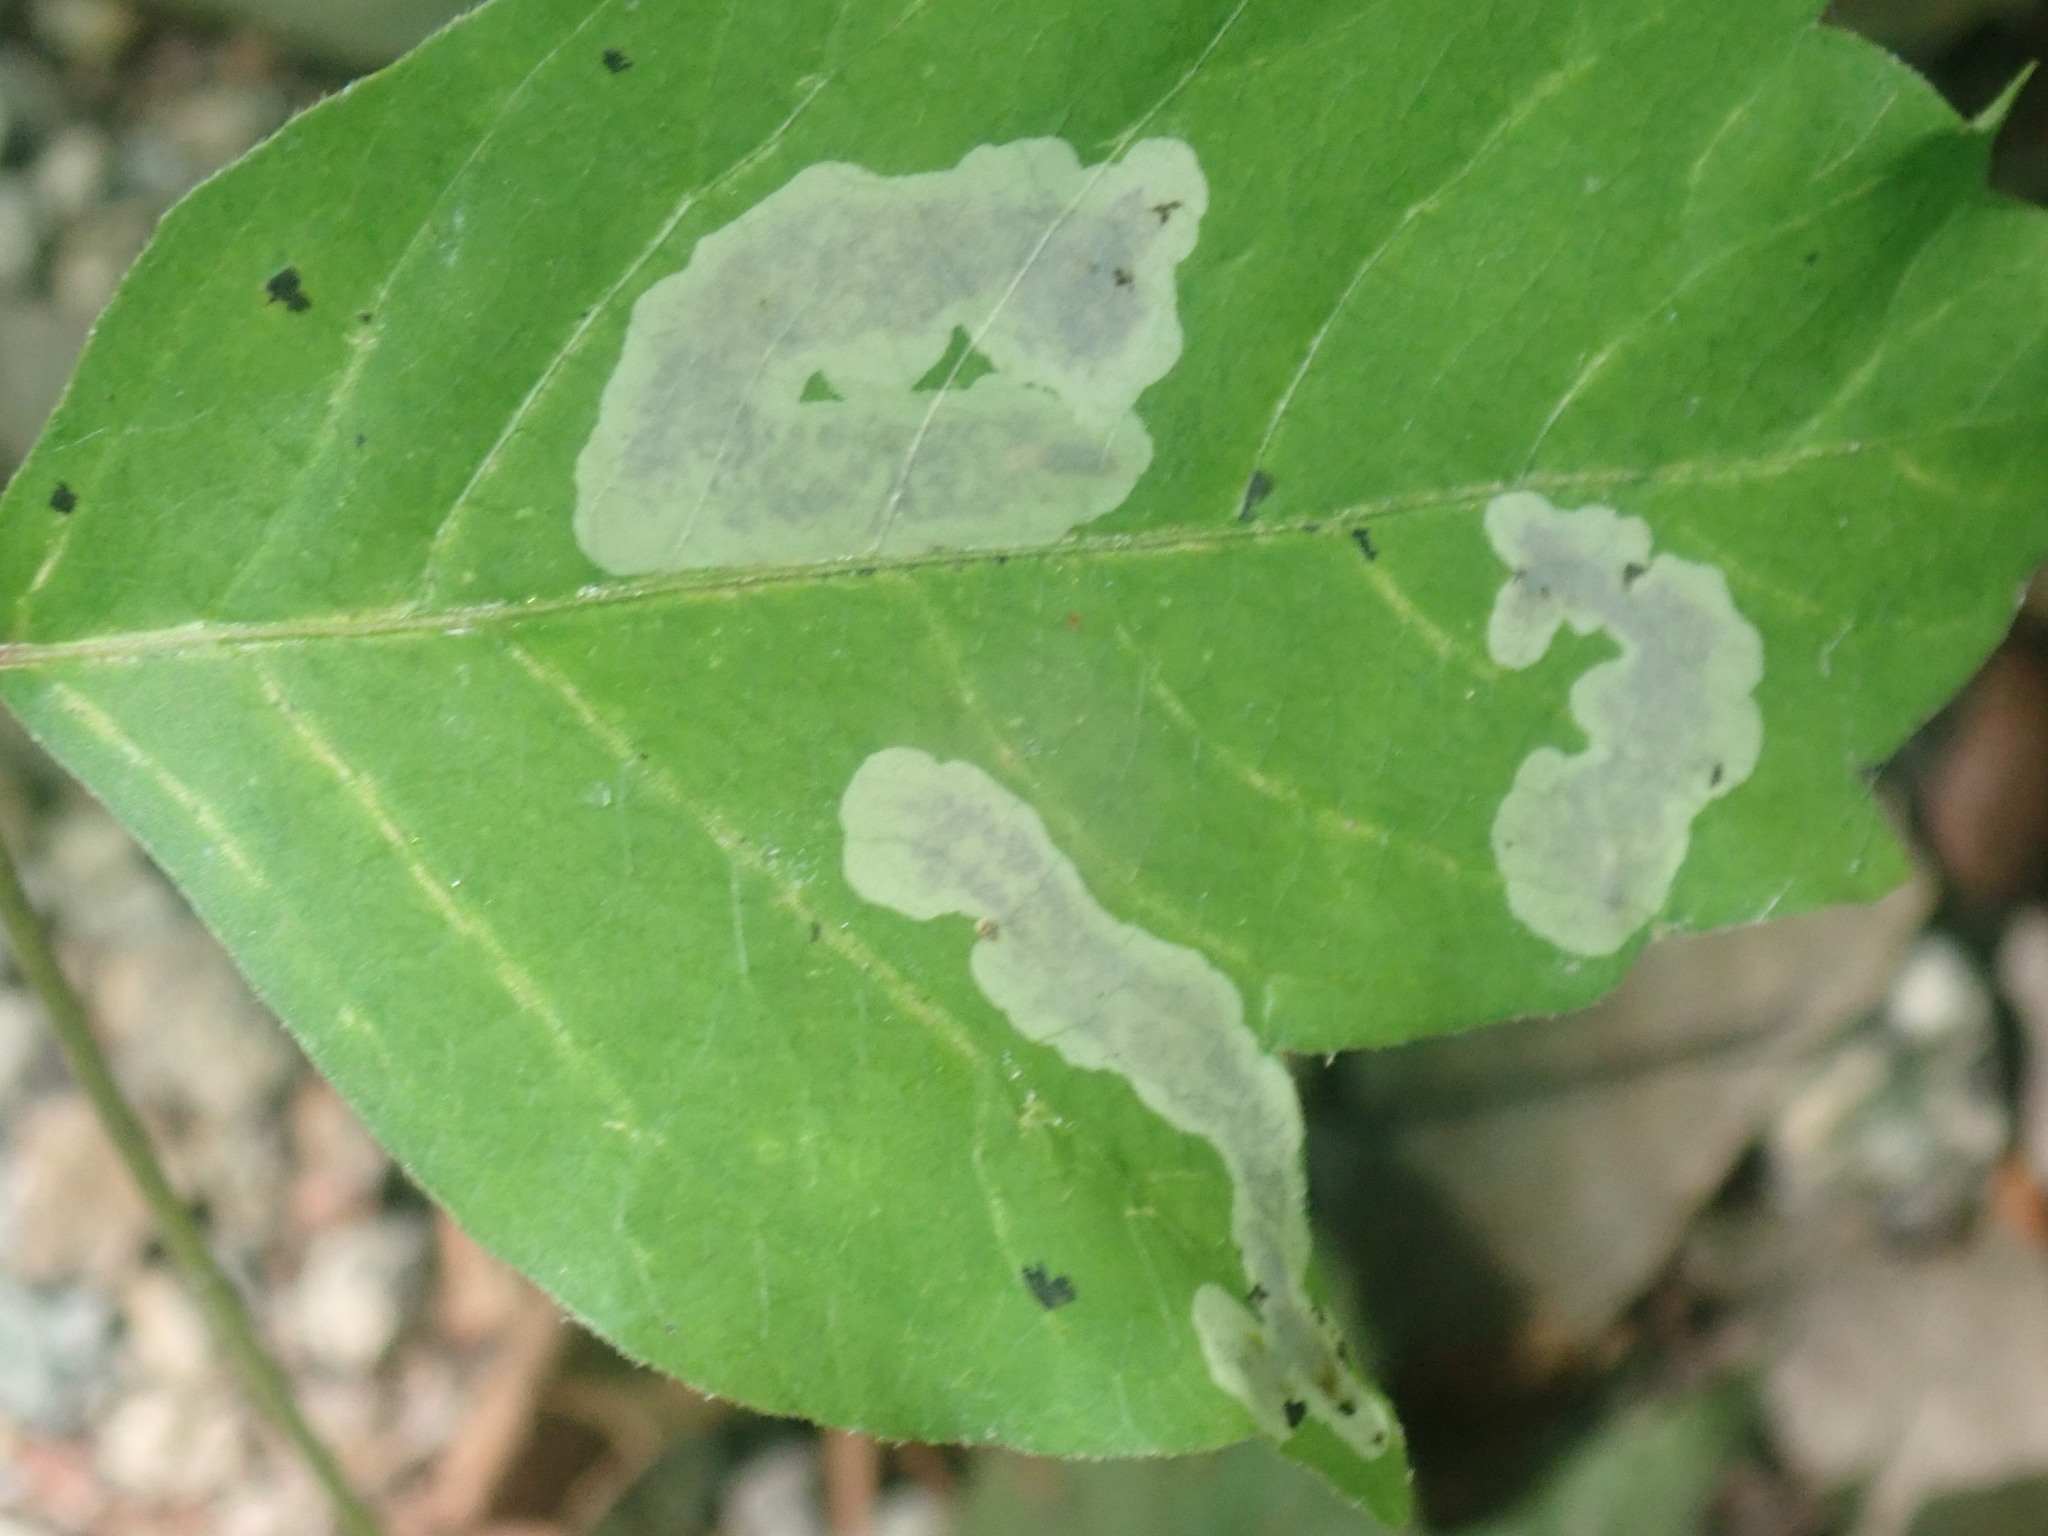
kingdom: Animalia
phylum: Arthropoda
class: Insecta
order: Lepidoptera
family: Gracillariidae
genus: Cameraria
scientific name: Cameraria guttifinitella
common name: Poison ivy leaf-miner moth
